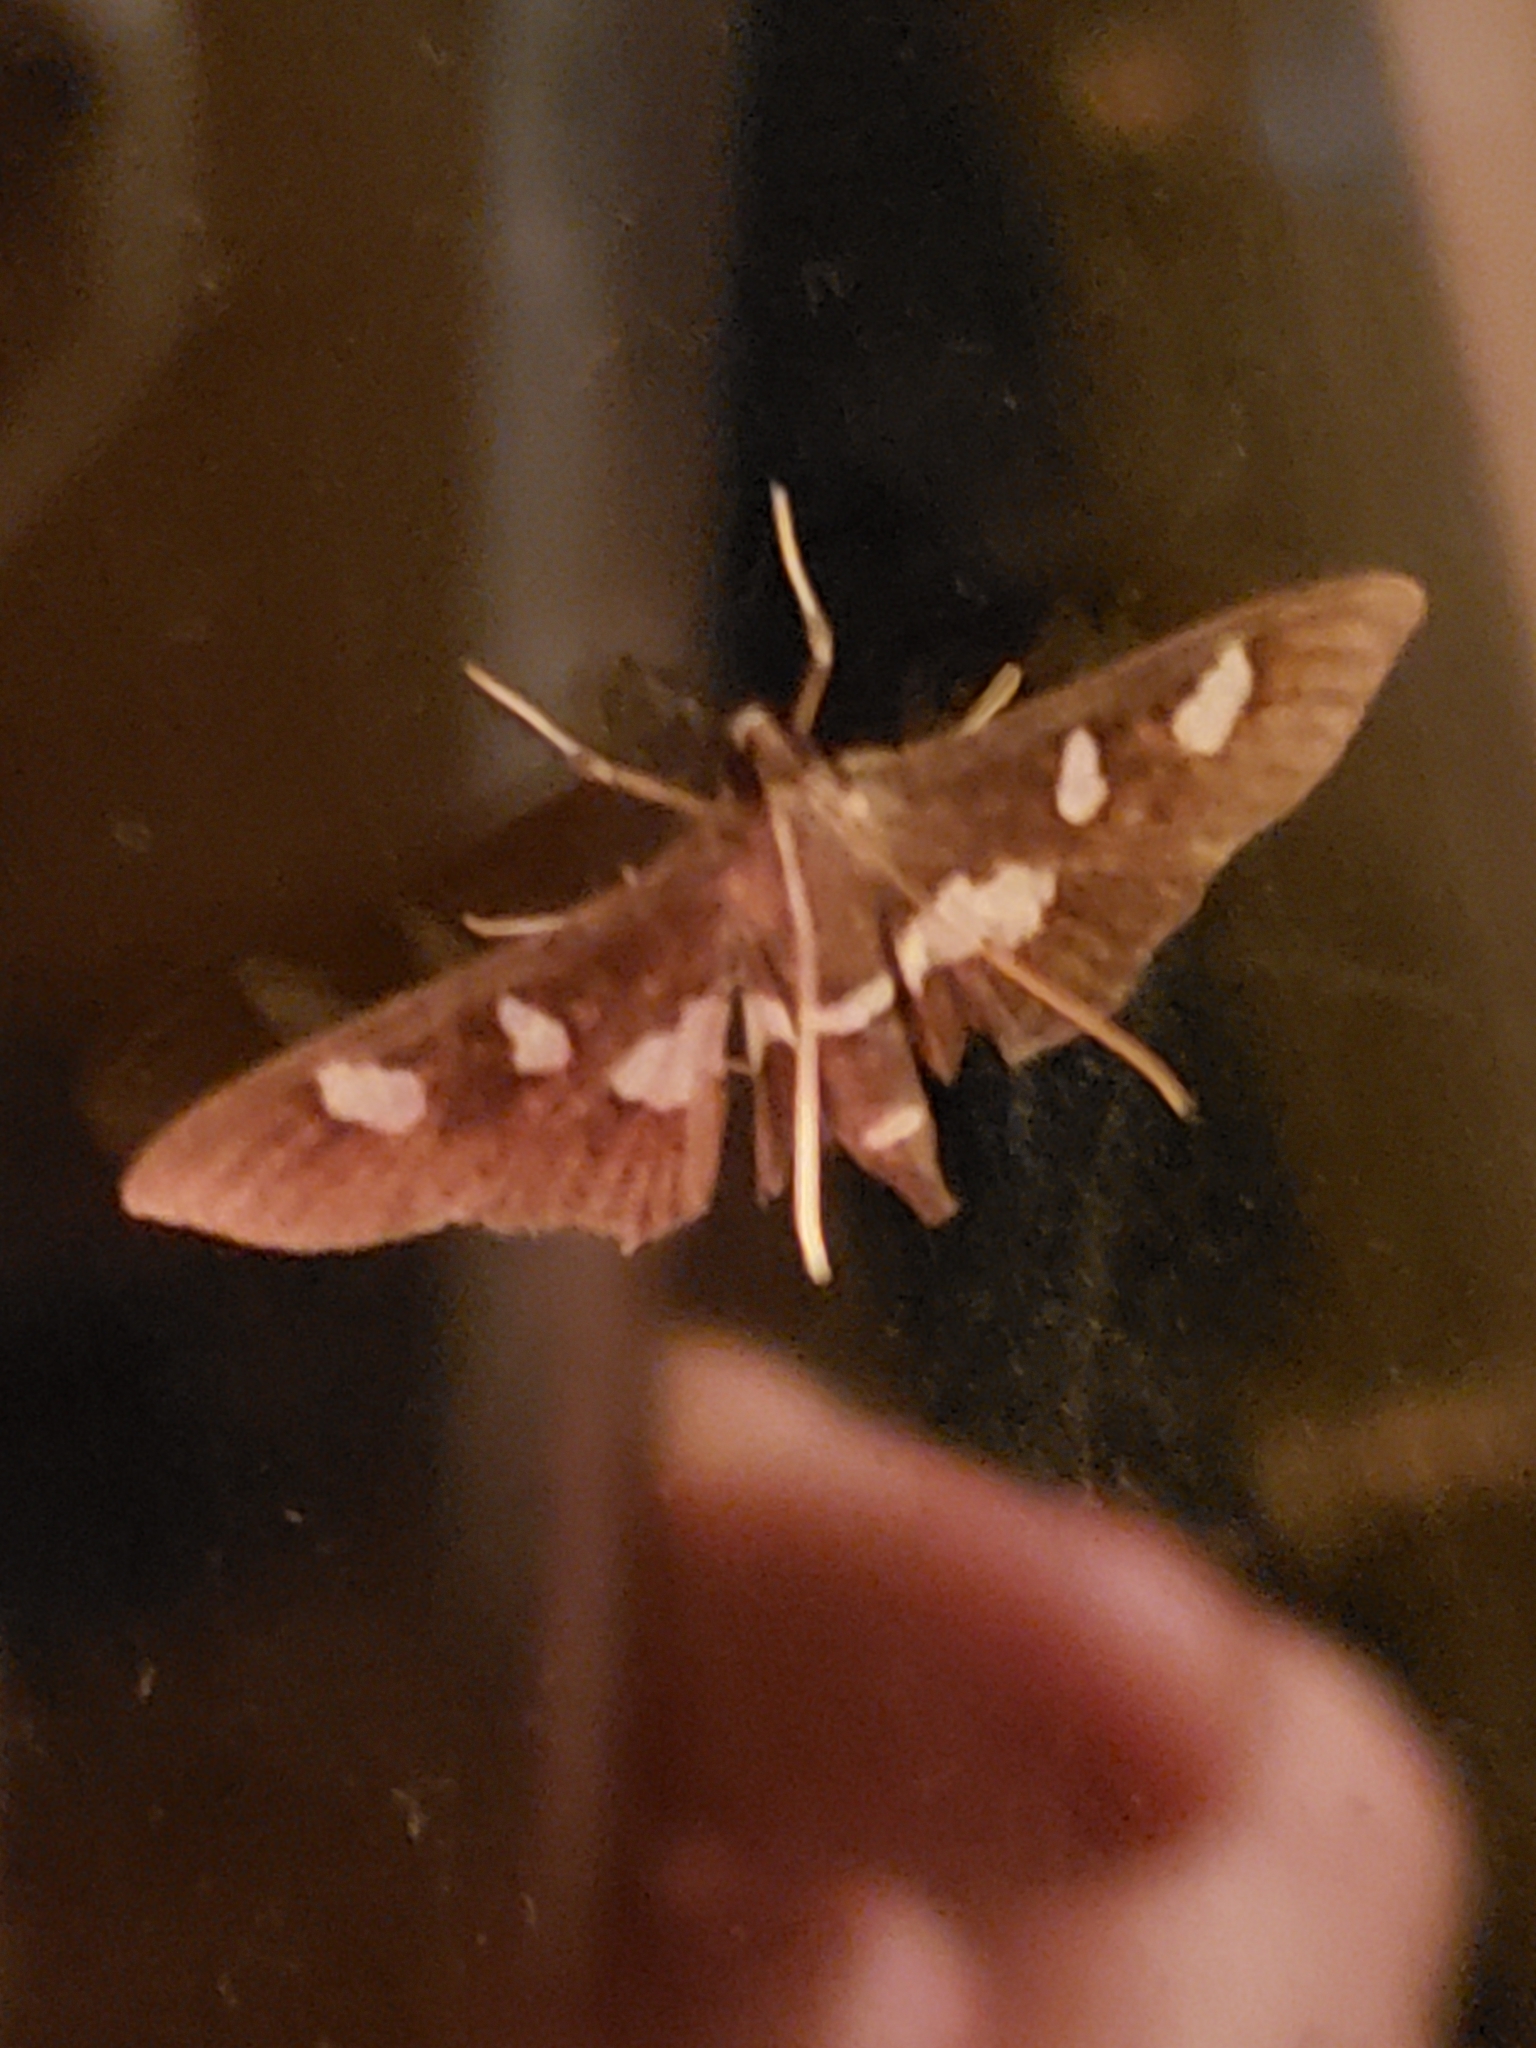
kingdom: Animalia
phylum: Arthropoda
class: Insecta
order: Lepidoptera
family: Crambidae
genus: Desmia
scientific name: Desmia funeralis
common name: Grape leaf folder moth
